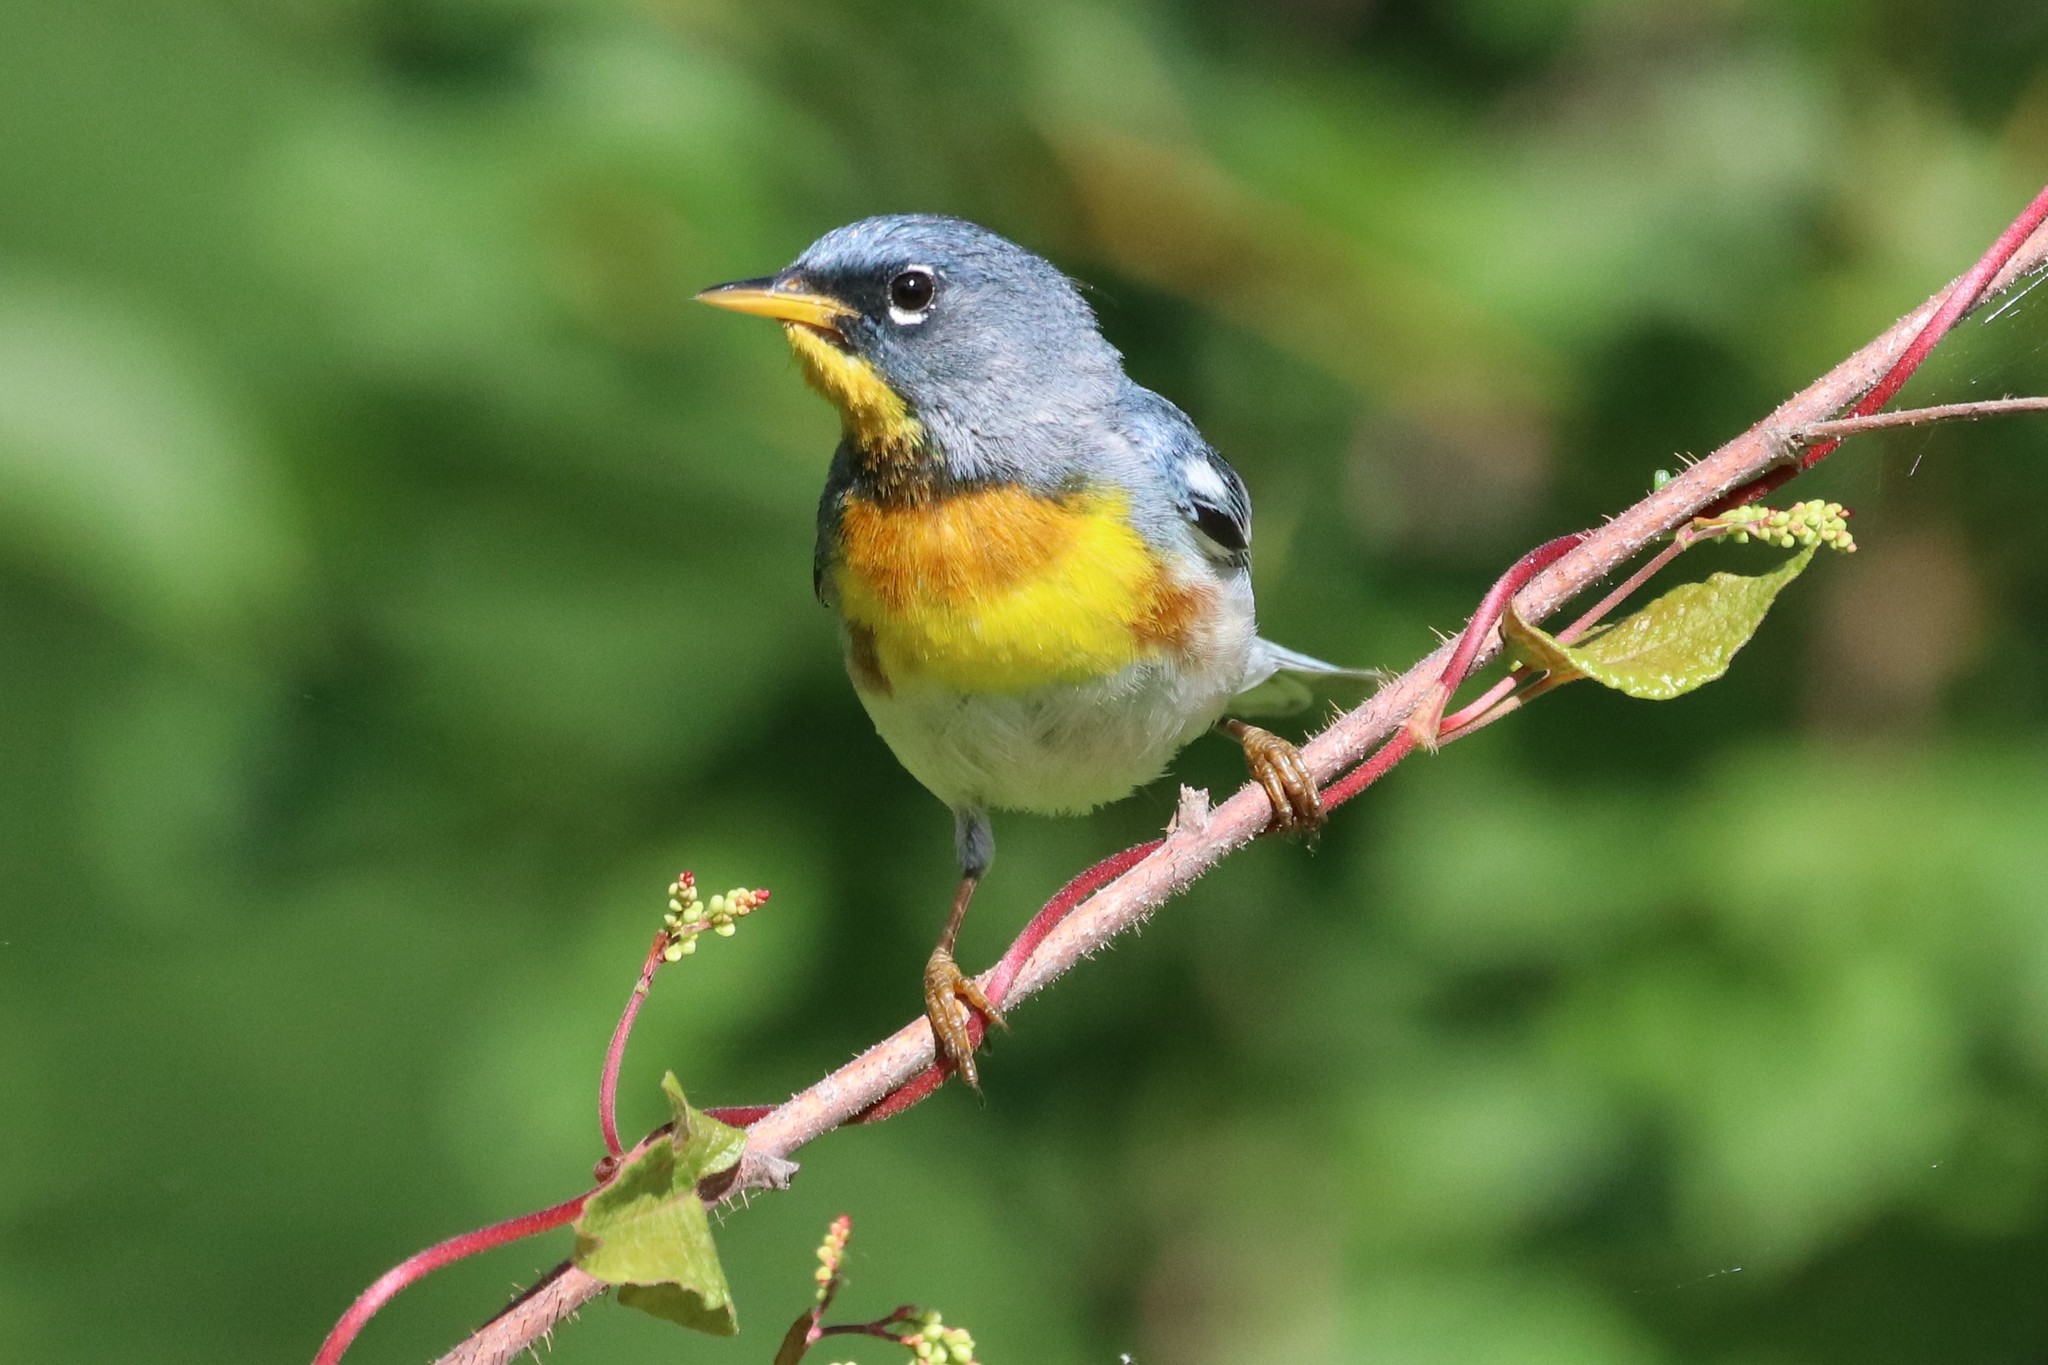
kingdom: Animalia
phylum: Chordata
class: Aves
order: Passeriformes
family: Parulidae
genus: Setophaga
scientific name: Setophaga americana
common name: Northern parula
